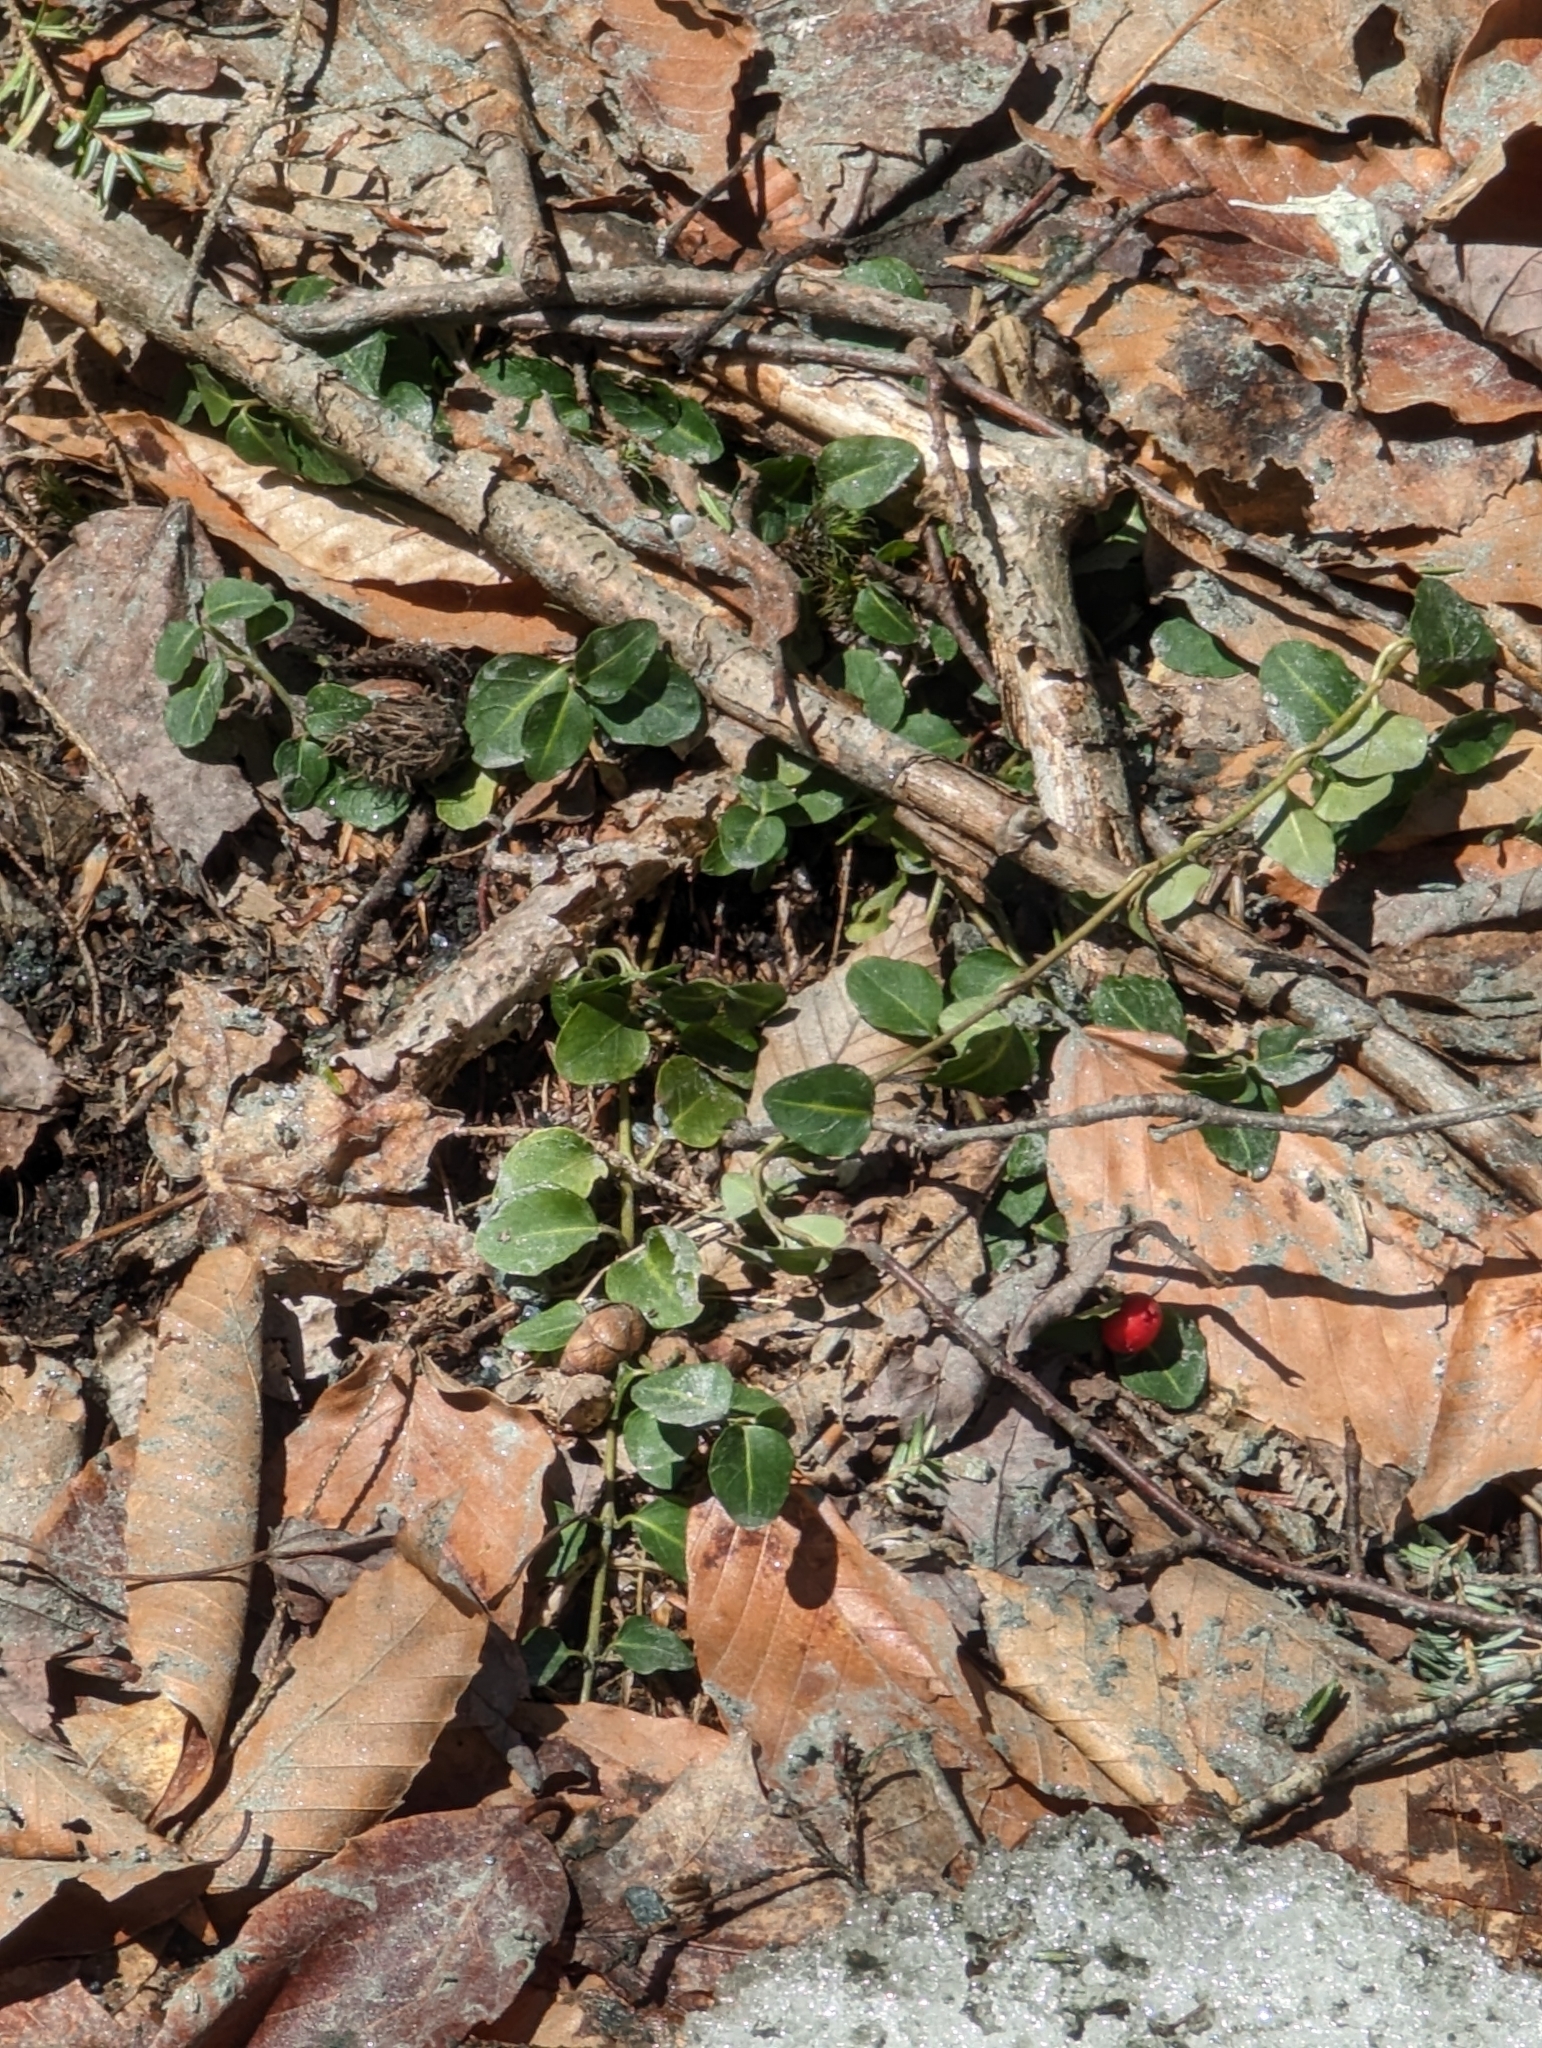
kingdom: Plantae
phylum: Tracheophyta
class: Magnoliopsida
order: Gentianales
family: Rubiaceae
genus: Mitchella
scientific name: Mitchella repens
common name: Partridge-berry
